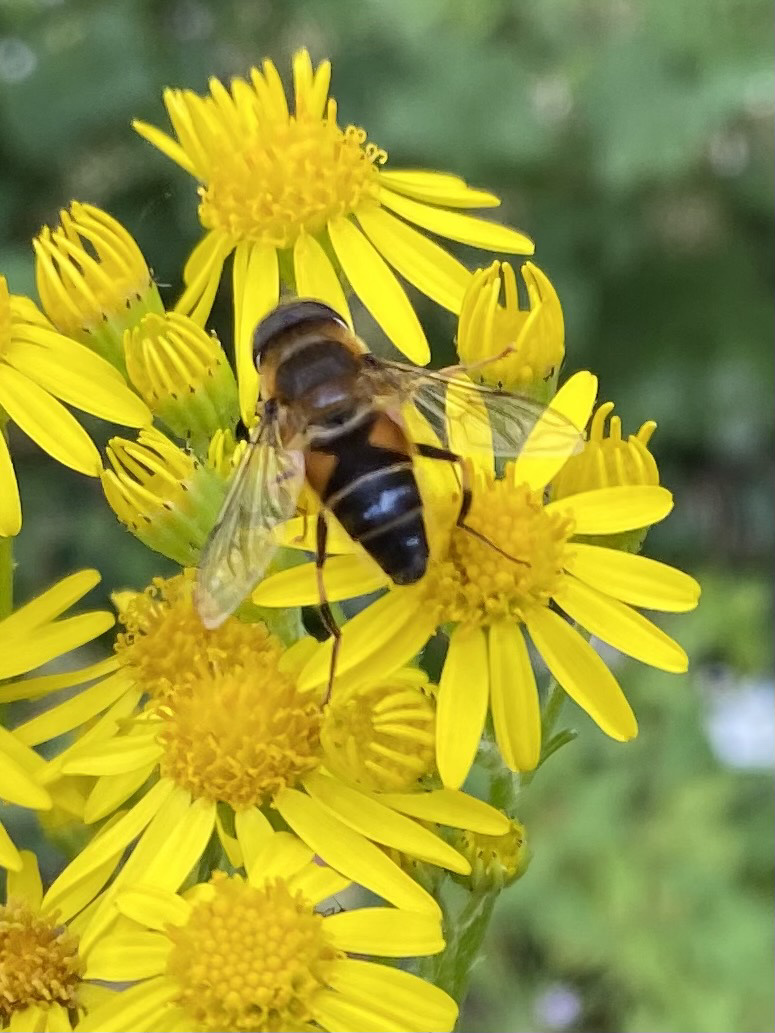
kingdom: Animalia
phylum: Arthropoda
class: Insecta
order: Diptera
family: Syrphidae
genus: Eristalis
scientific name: Eristalis pertinax
